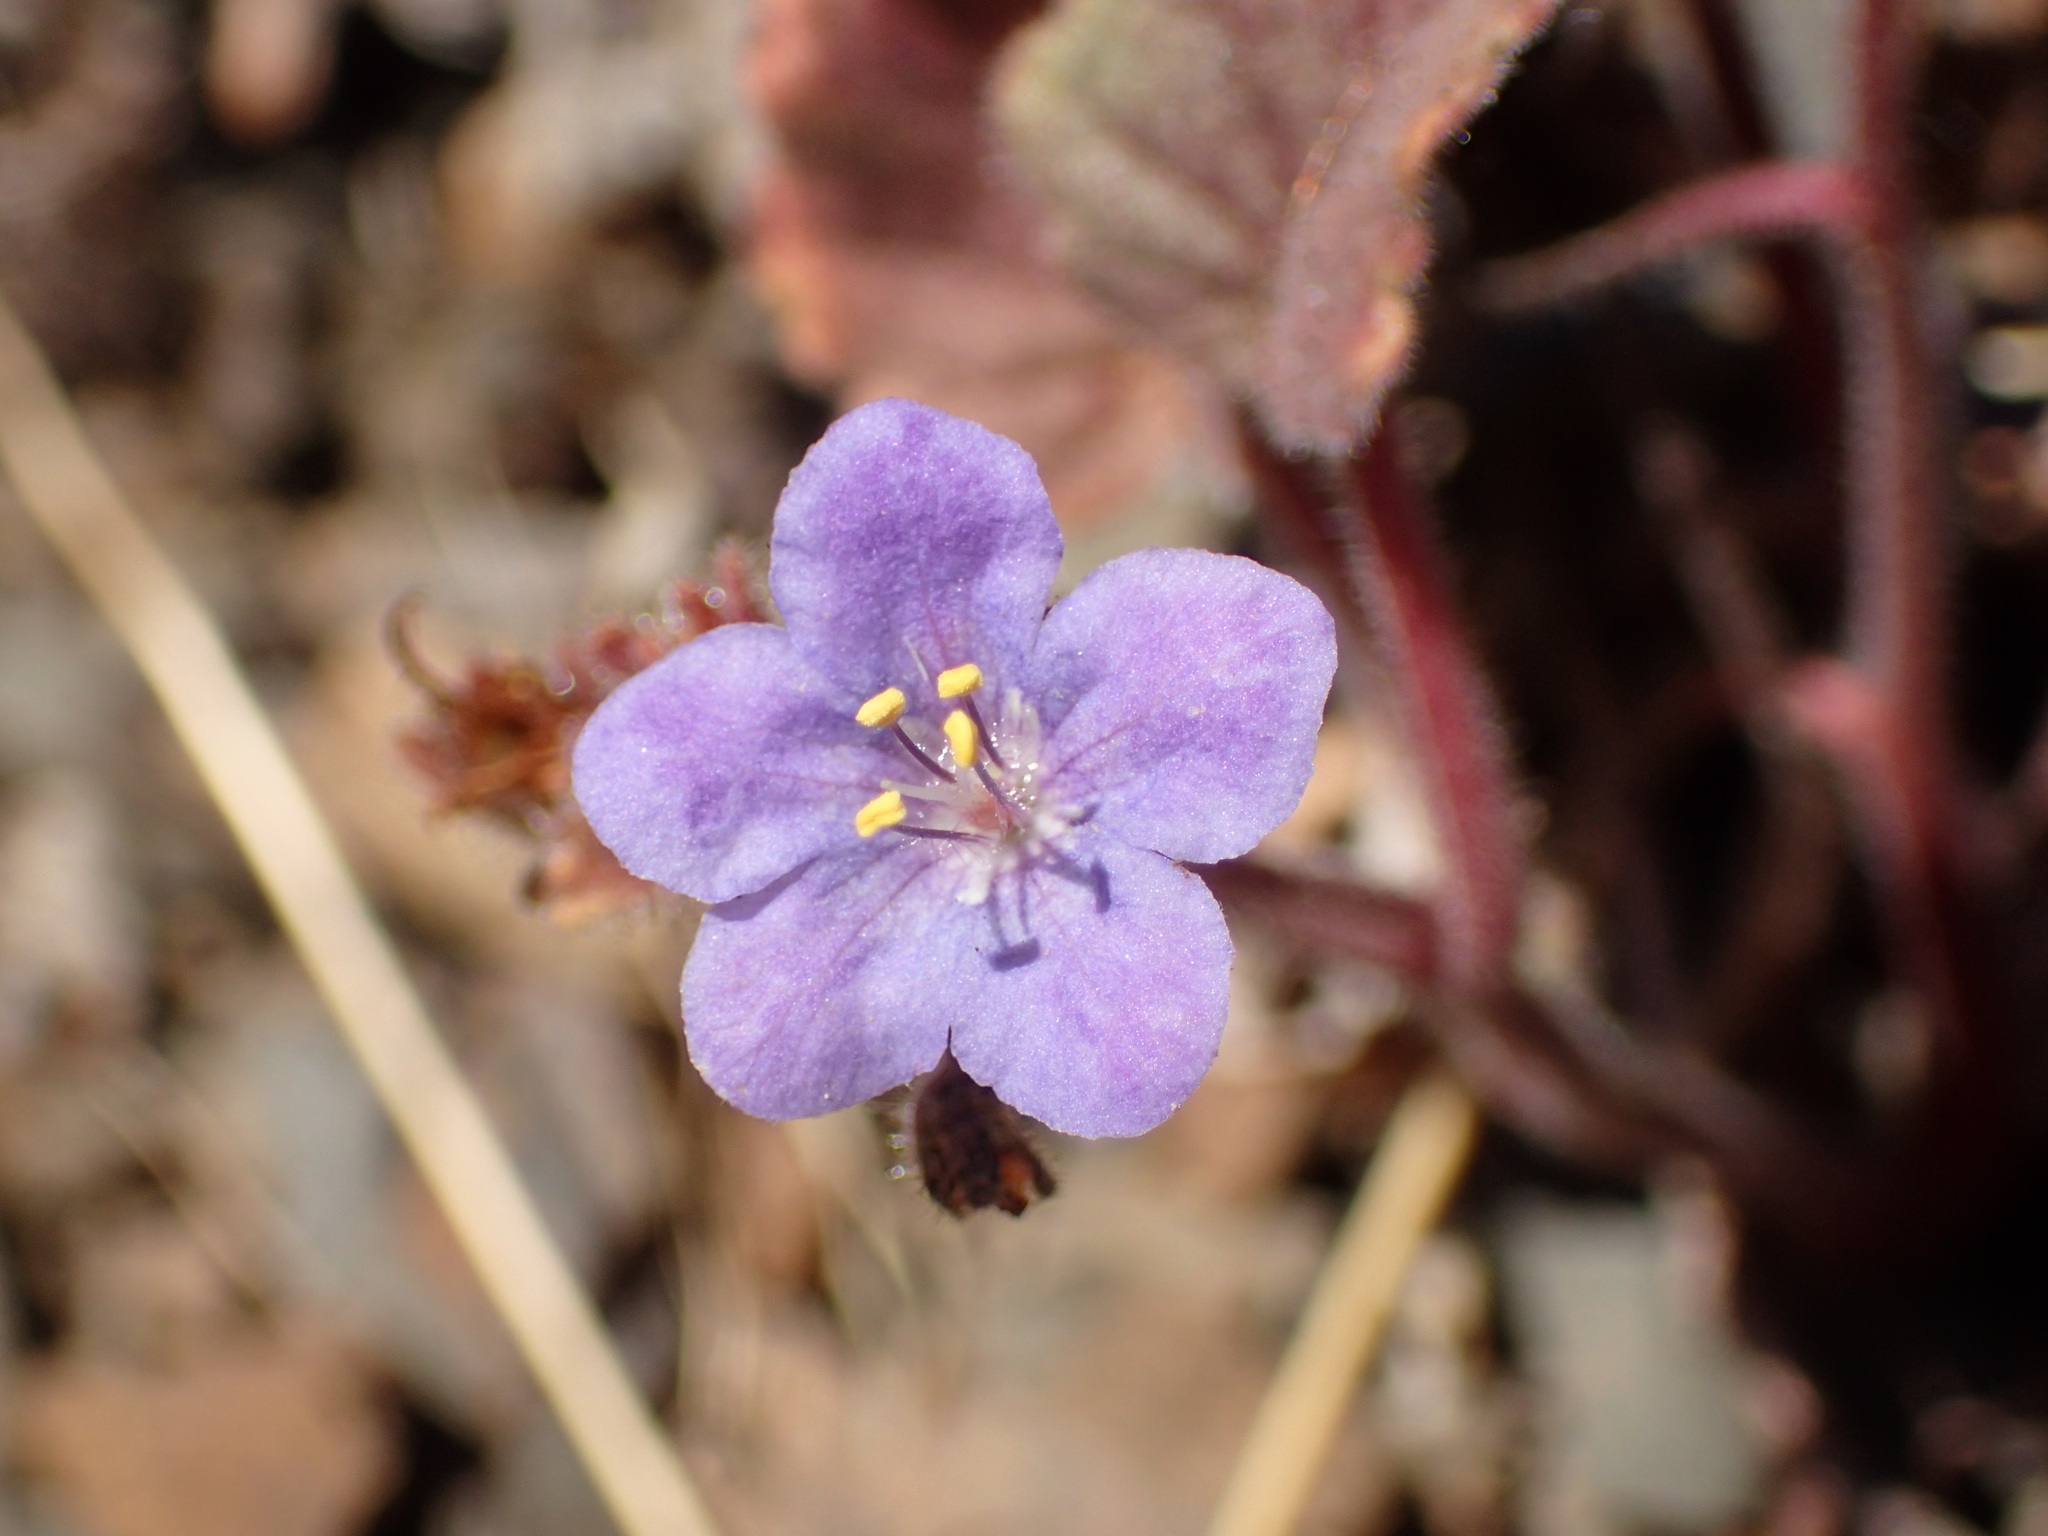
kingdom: Plantae
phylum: Tracheophyta
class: Magnoliopsida
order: Boraginales
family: Hydrophyllaceae
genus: Phacelia
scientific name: Phacelia longipes
